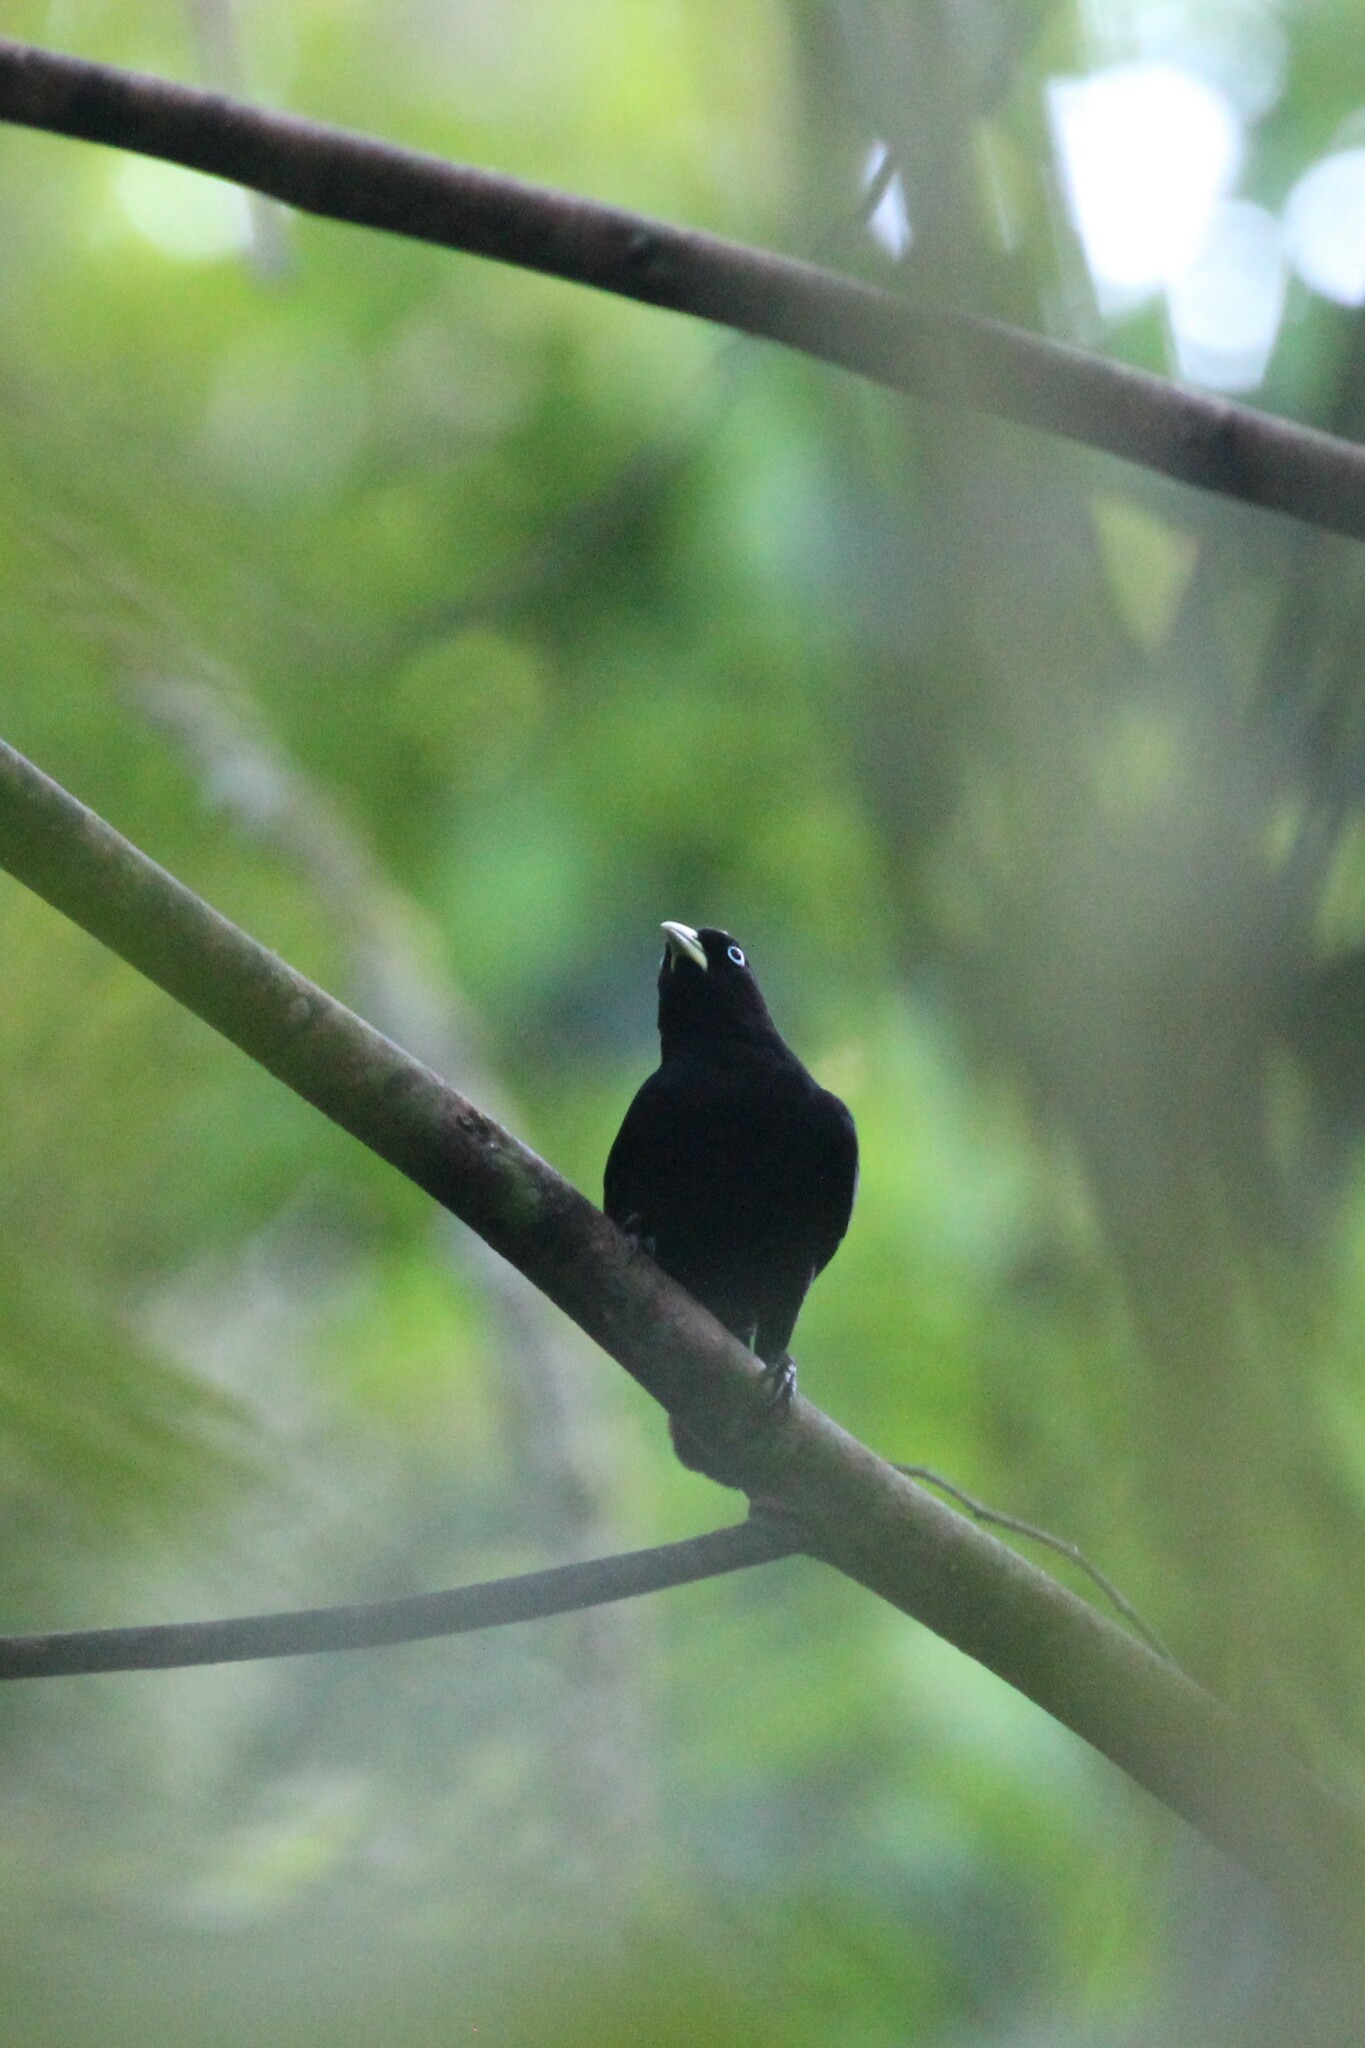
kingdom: Animalia
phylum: Chordata
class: Aves
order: Passeriformes
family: Icteridae
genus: Cacicus
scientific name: Cacicus uropygialis
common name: Scarlet-rumped cacique
